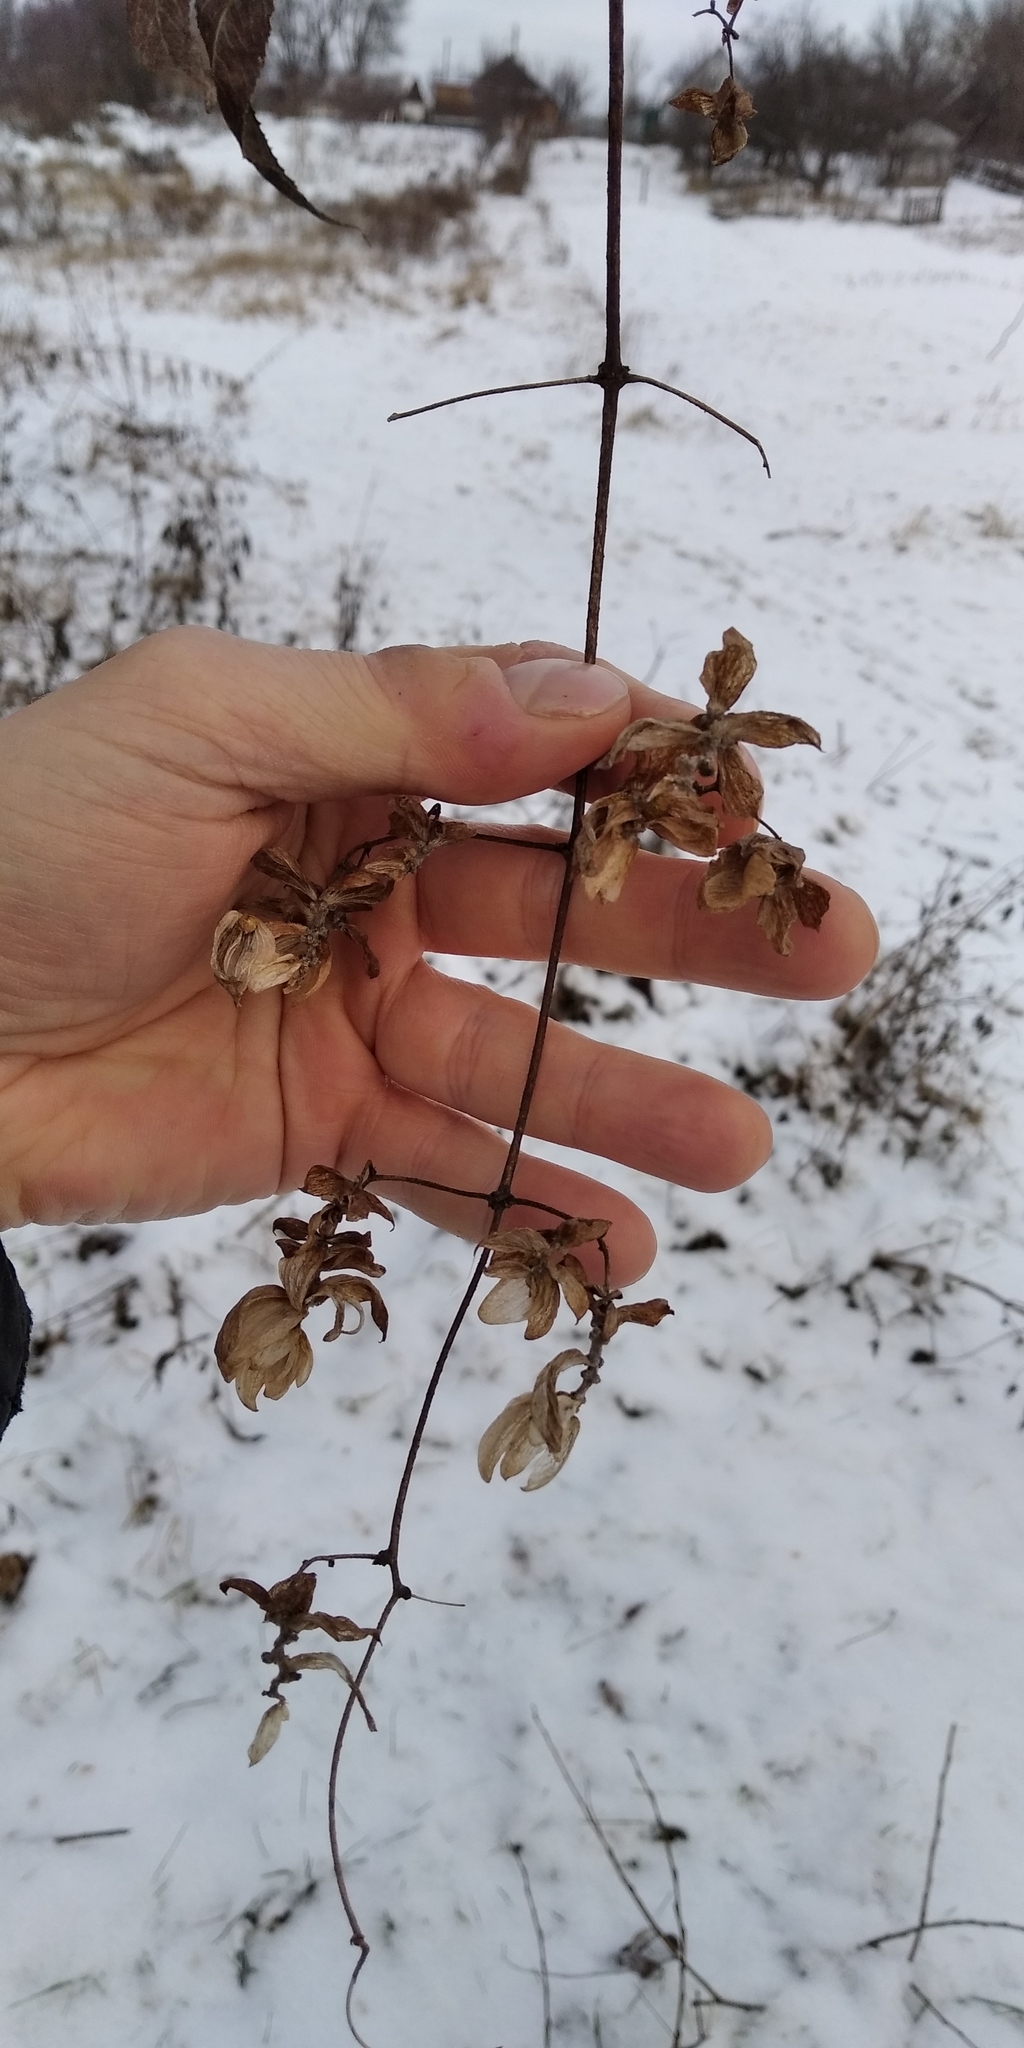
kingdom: Plantae
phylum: Tracheophyta
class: Magnoliopsida
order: Rosales
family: Cannabaceae
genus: Humulus
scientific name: Humulus lupulus
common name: Hop
